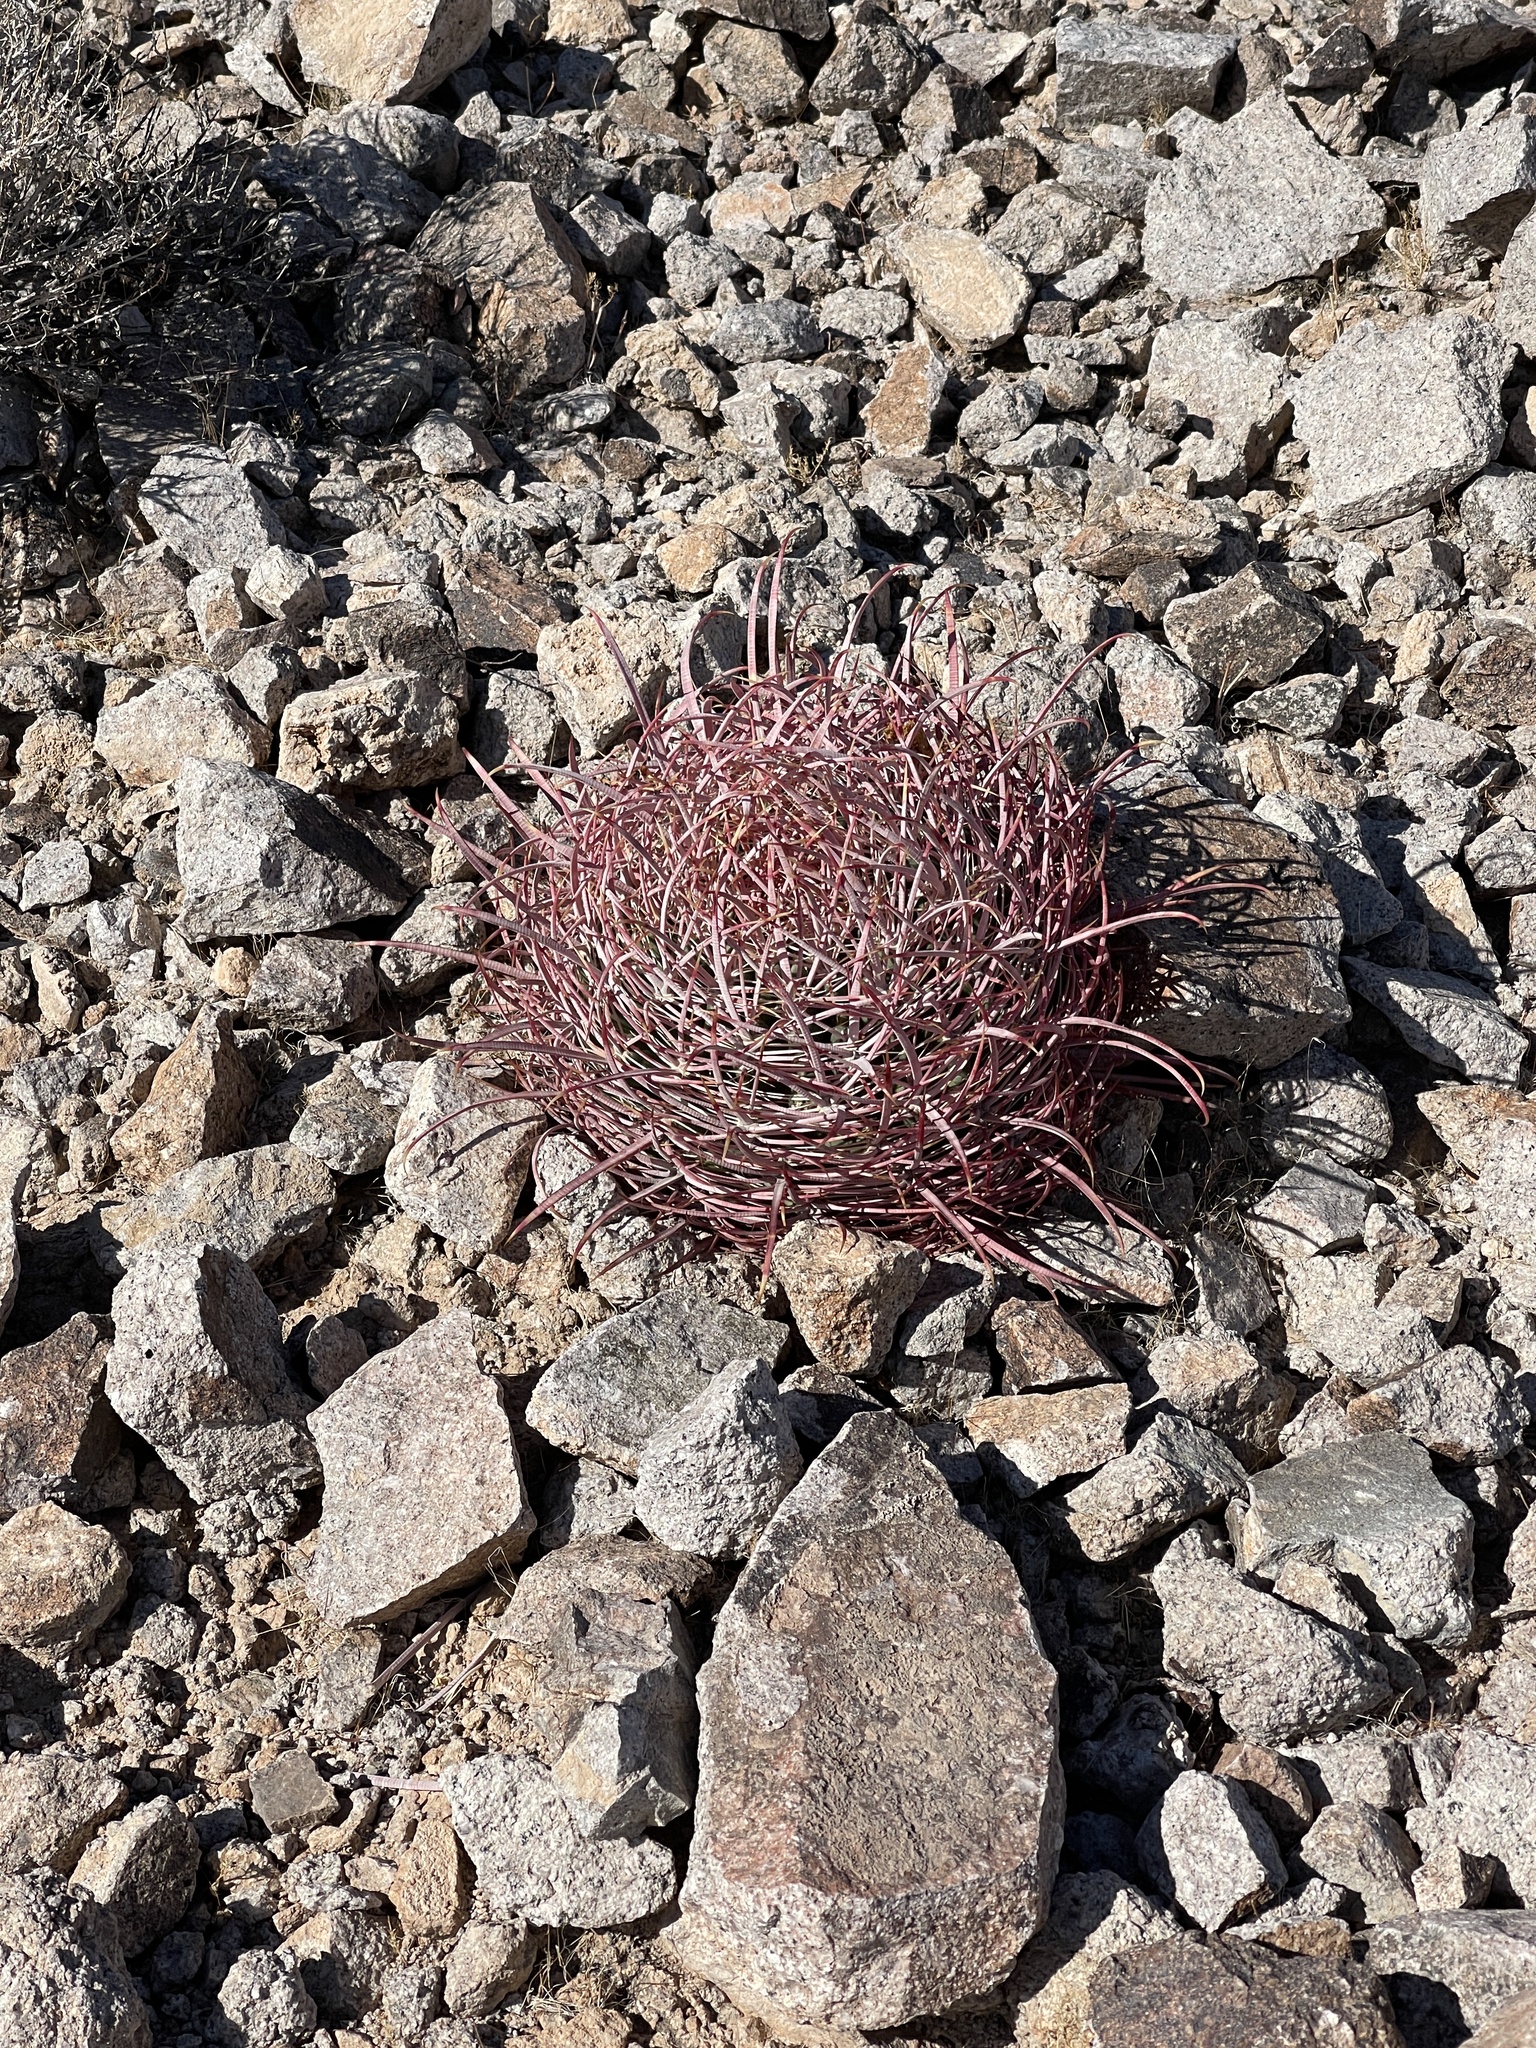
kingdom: Plantae
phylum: Tracheophyta
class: Magnoliopsida
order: Caryophyllales
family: Cactaceae
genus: Ferocactus
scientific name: Ferocactus cylindraceus
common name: California barrel cactus
